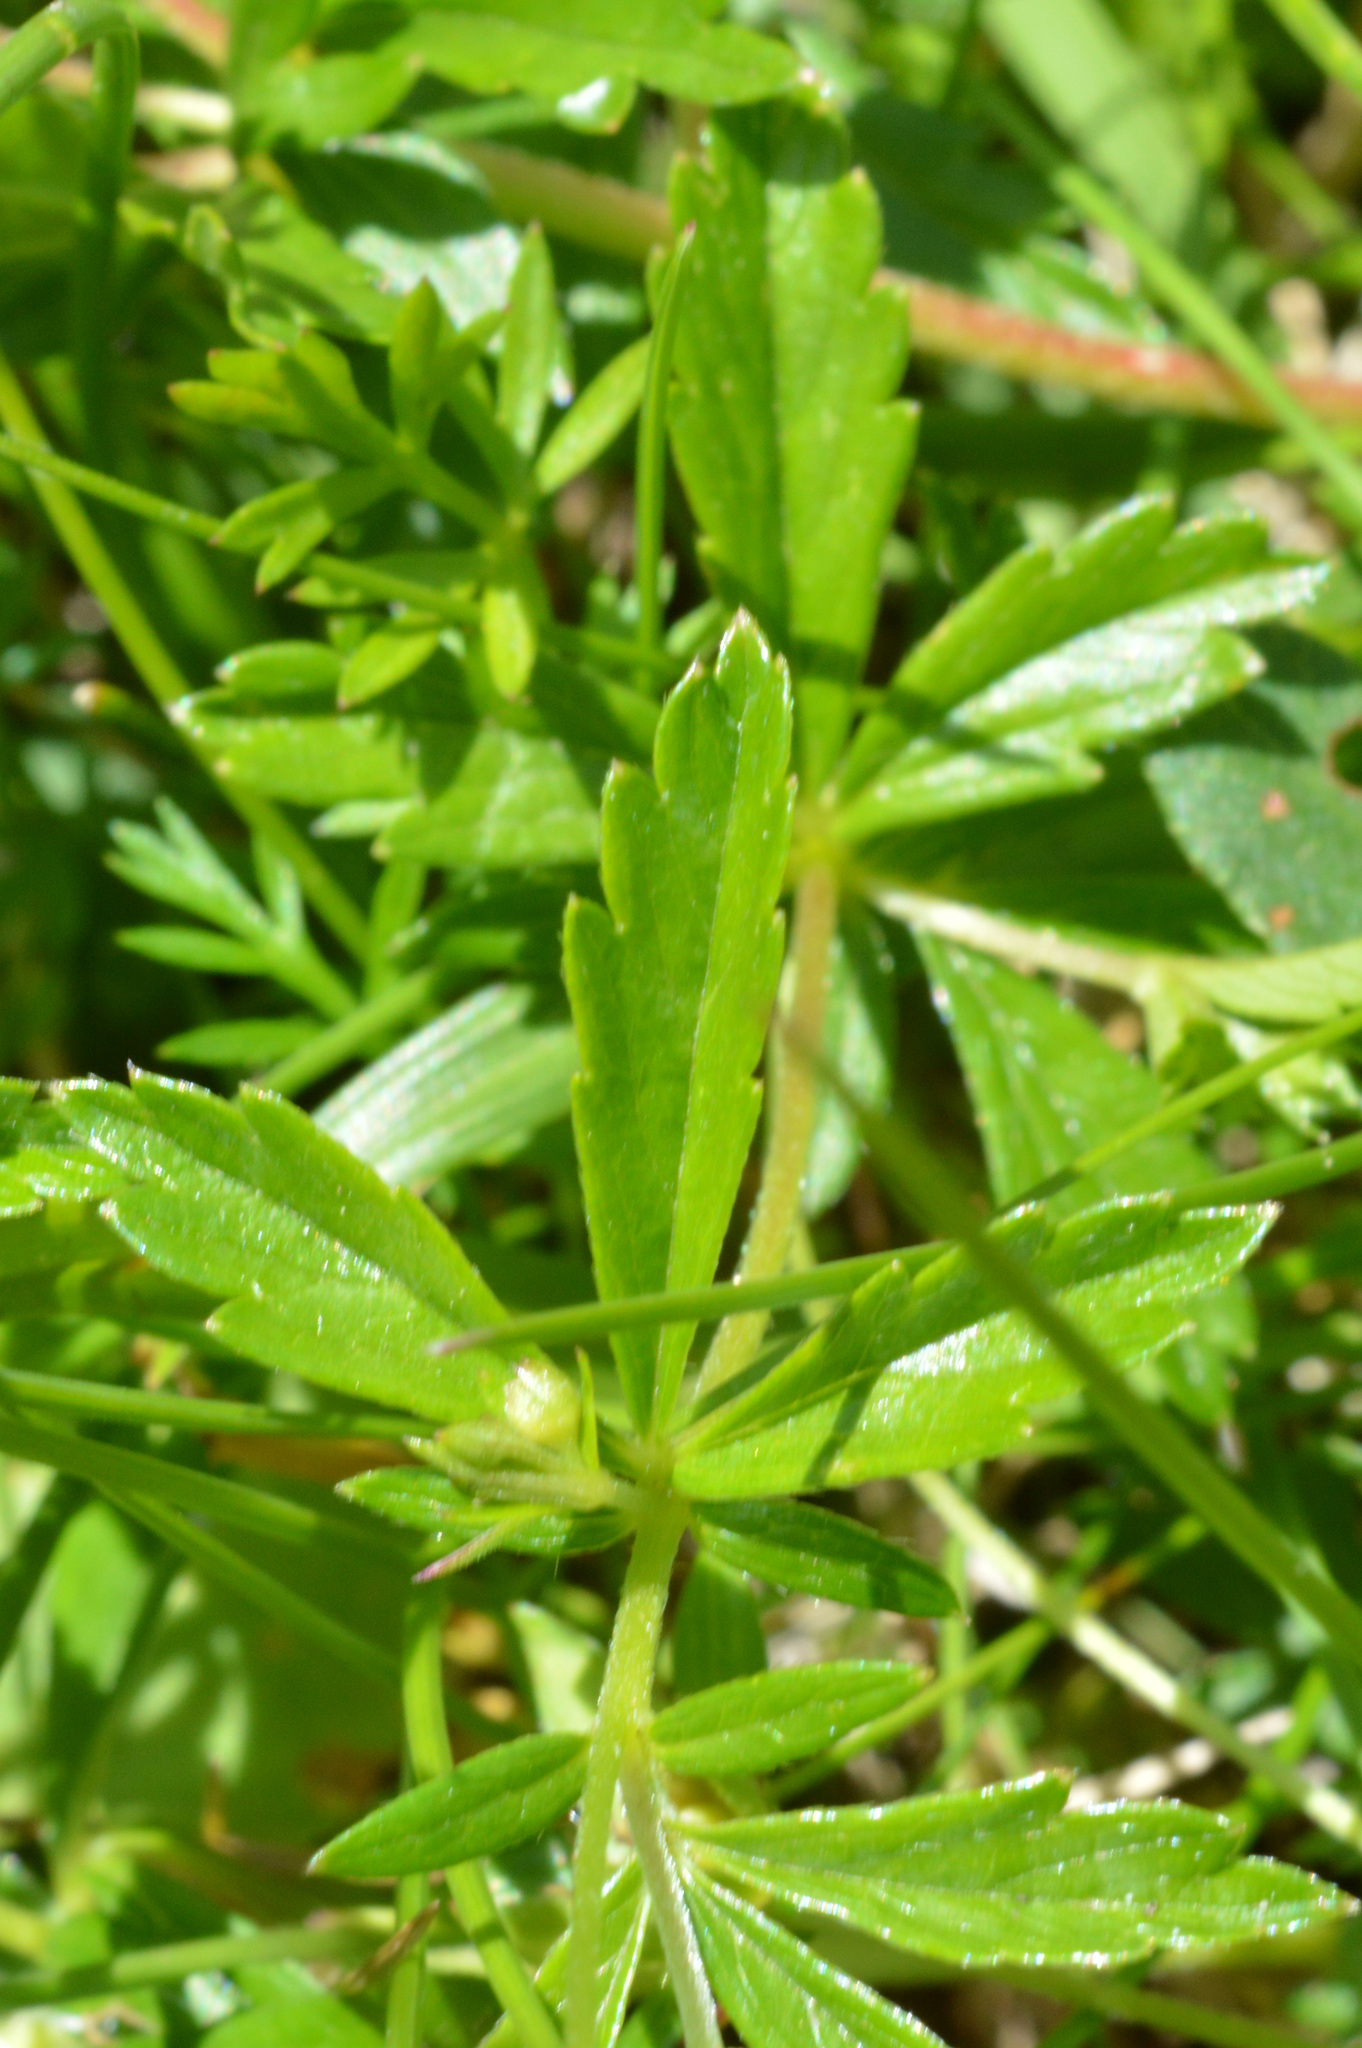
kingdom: Plantae
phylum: Tracheophyta
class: Magnoliopsida
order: Rosales
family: Rosaceae
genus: Potentilla
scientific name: Potentilla erecta
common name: Tormentil
